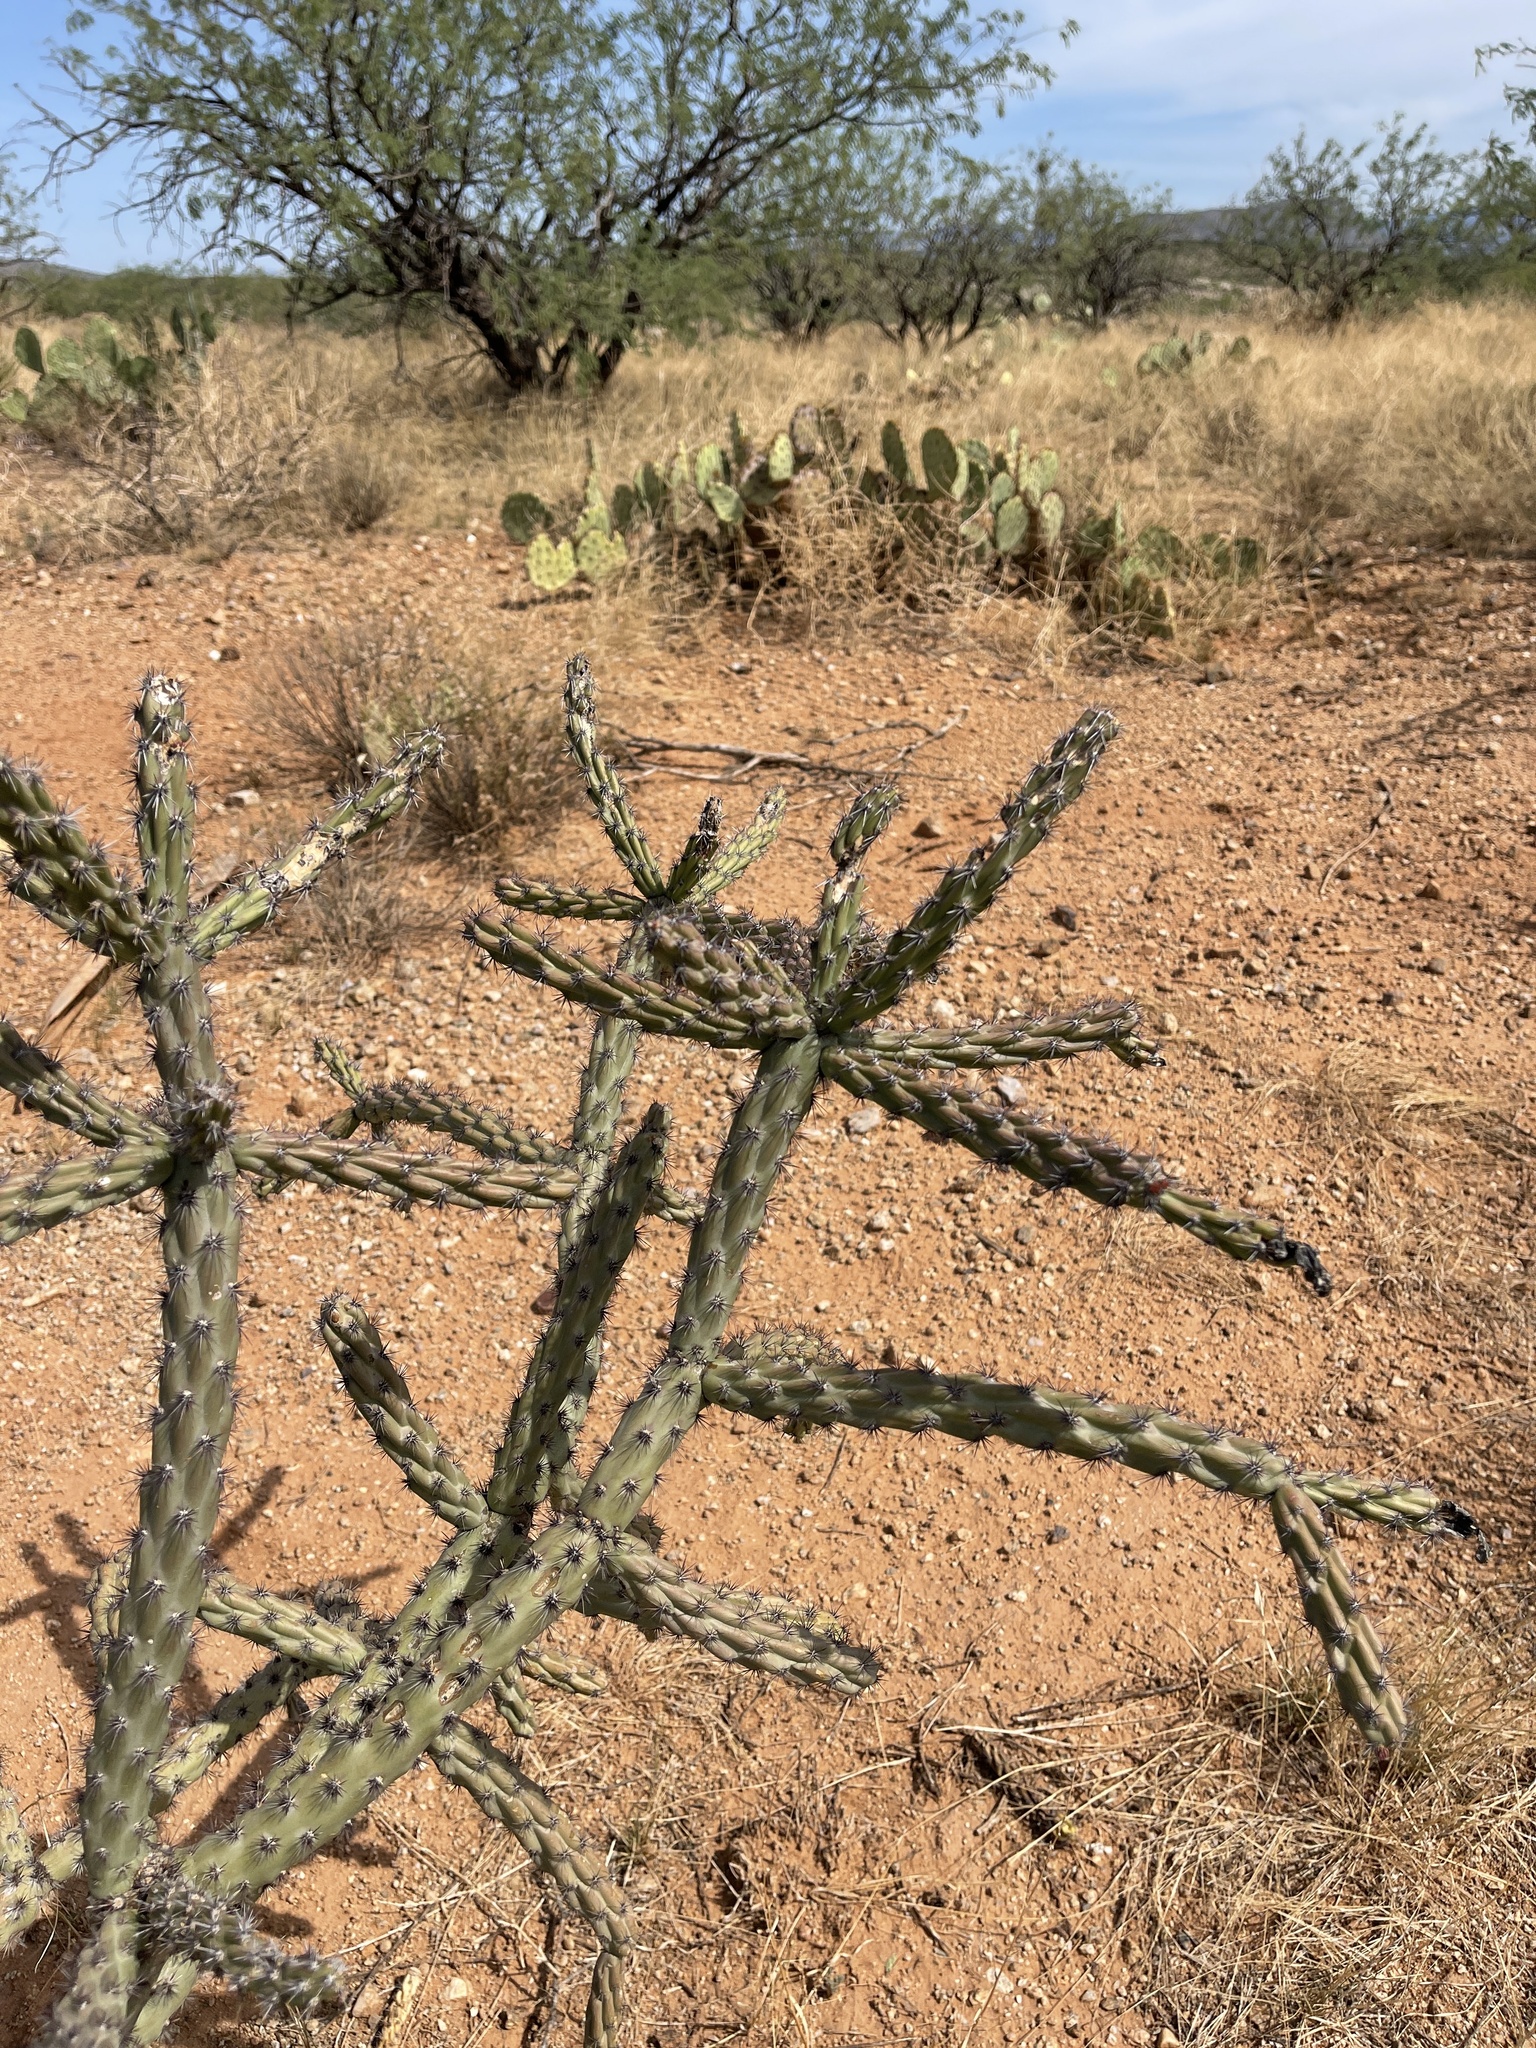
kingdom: Plantae
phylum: Tracheophyta
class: Magnoliopsida
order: Caryophyllales
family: Cactaceae
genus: Cylindropuntia
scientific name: Cylindropuntia thurberi
